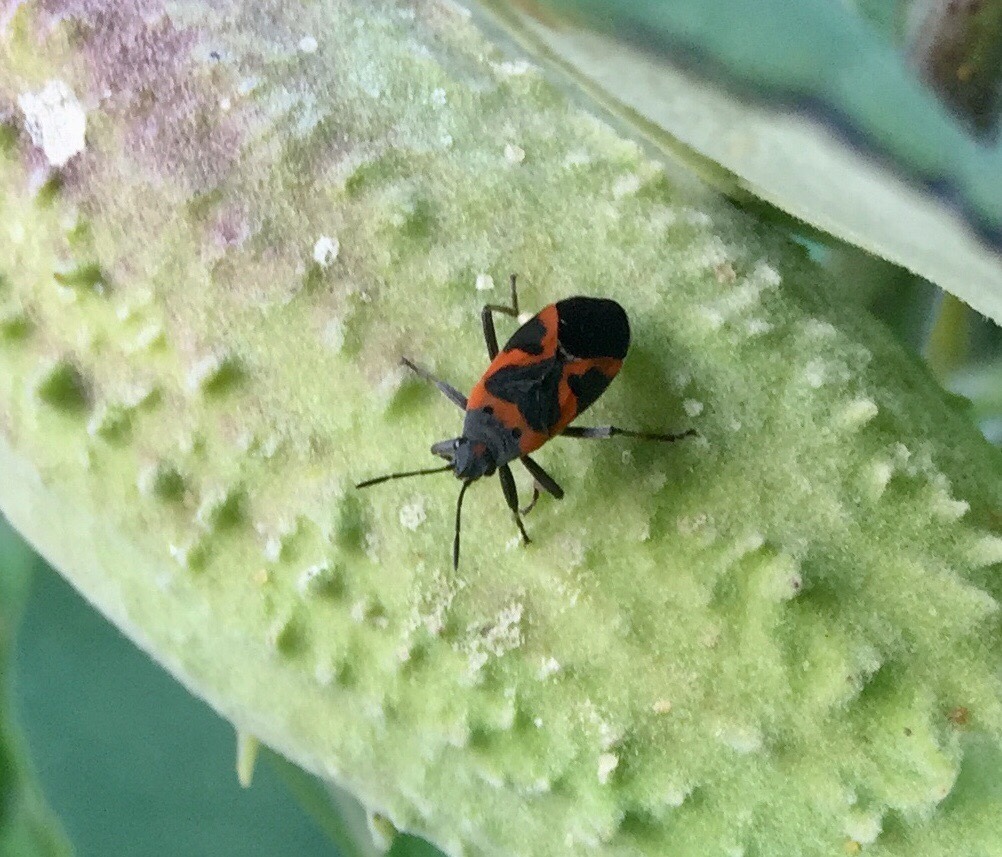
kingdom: Animalia
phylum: Arthropoda
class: Insecta
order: Hemiptera
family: Lygaeidae
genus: Lygaeus
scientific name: Lygaeus kalmii
